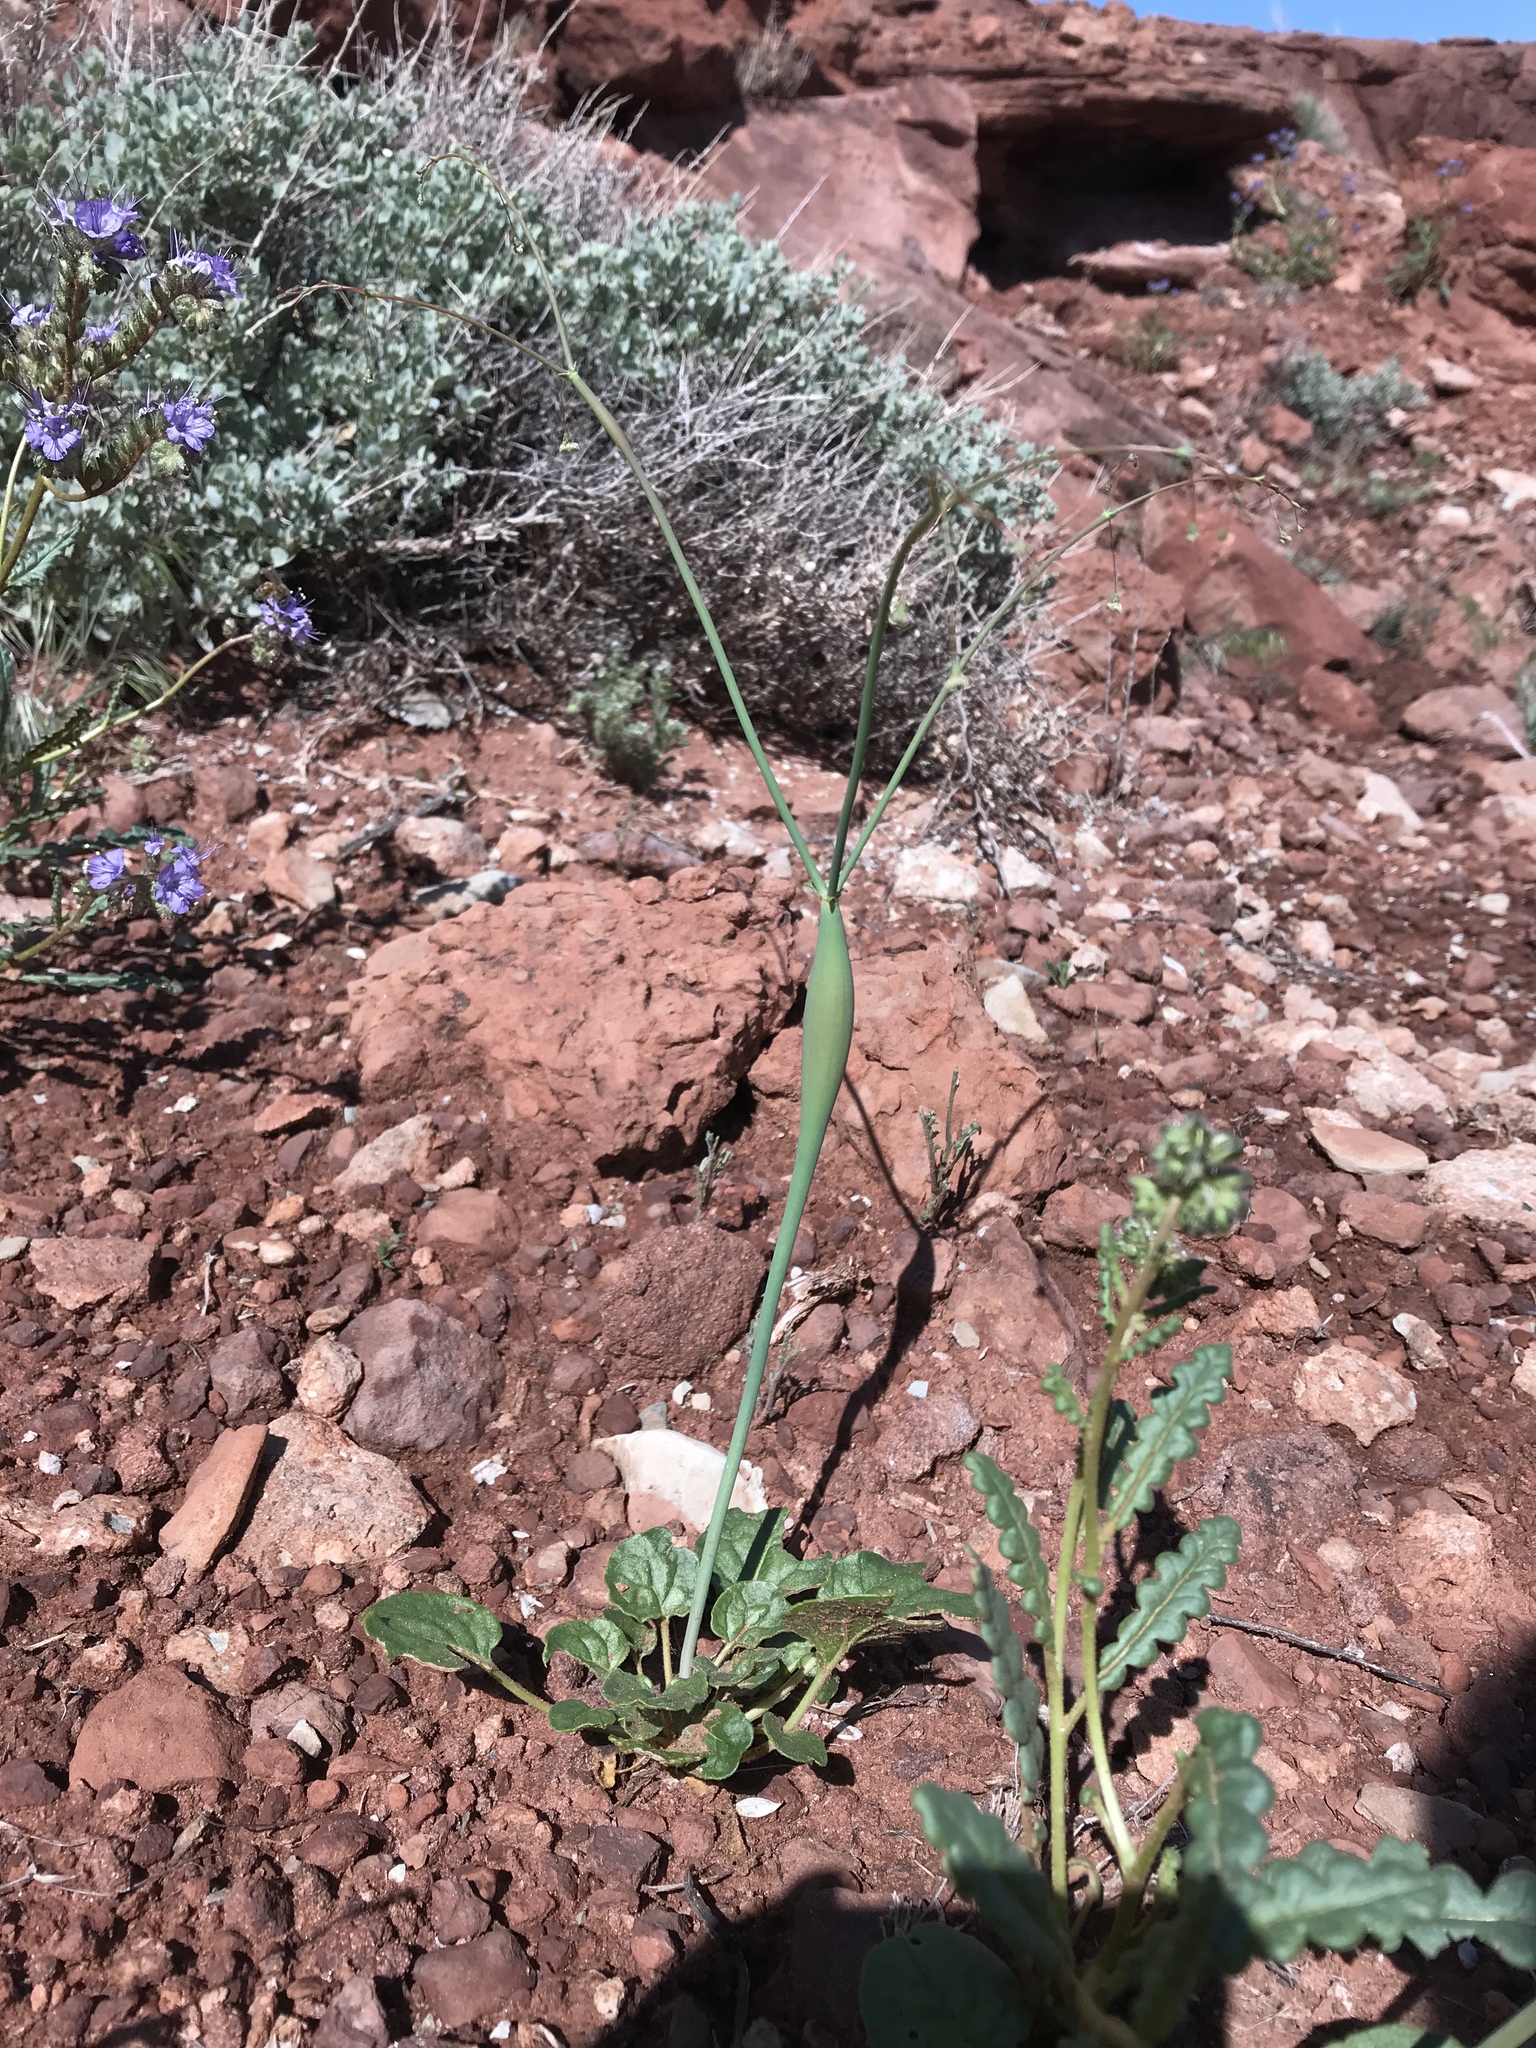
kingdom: Plantae
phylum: Tracheophyta
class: Magnoliopsida
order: Caryophyllales
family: Polygonaceae
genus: Eriogonum
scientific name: Eriogonum inflatum
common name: Desert trumpet
